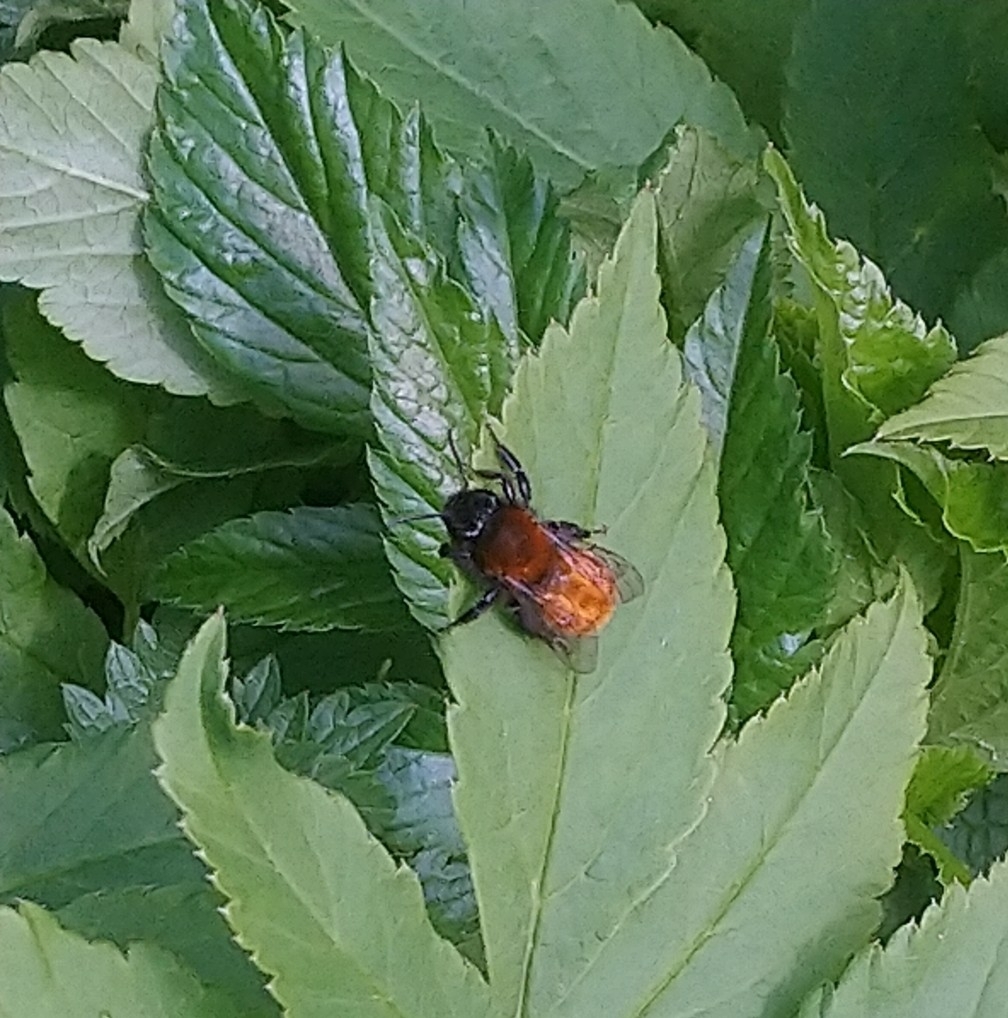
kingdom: Animalia
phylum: Arthropoda
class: Insecta
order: Hymenoptera
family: Andrenidae
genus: Andrena
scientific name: Andrena fulva
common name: Tawny mining bee
